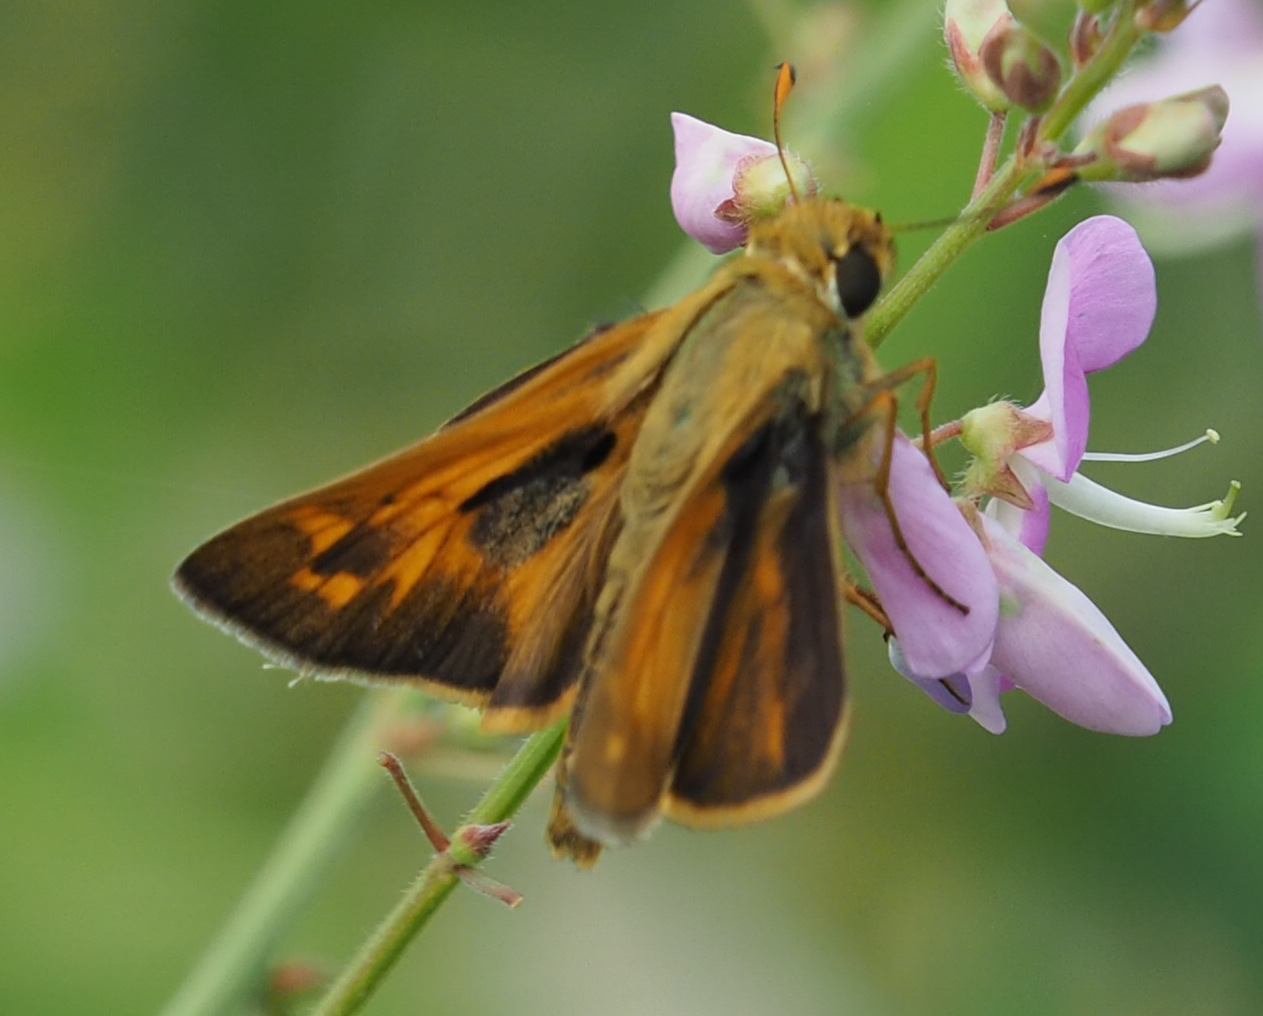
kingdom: Animalia
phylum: Arthropoda
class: Insecta
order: Lepidoptera
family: Hesperiidae
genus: Atalopedes
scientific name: Atalopedes
